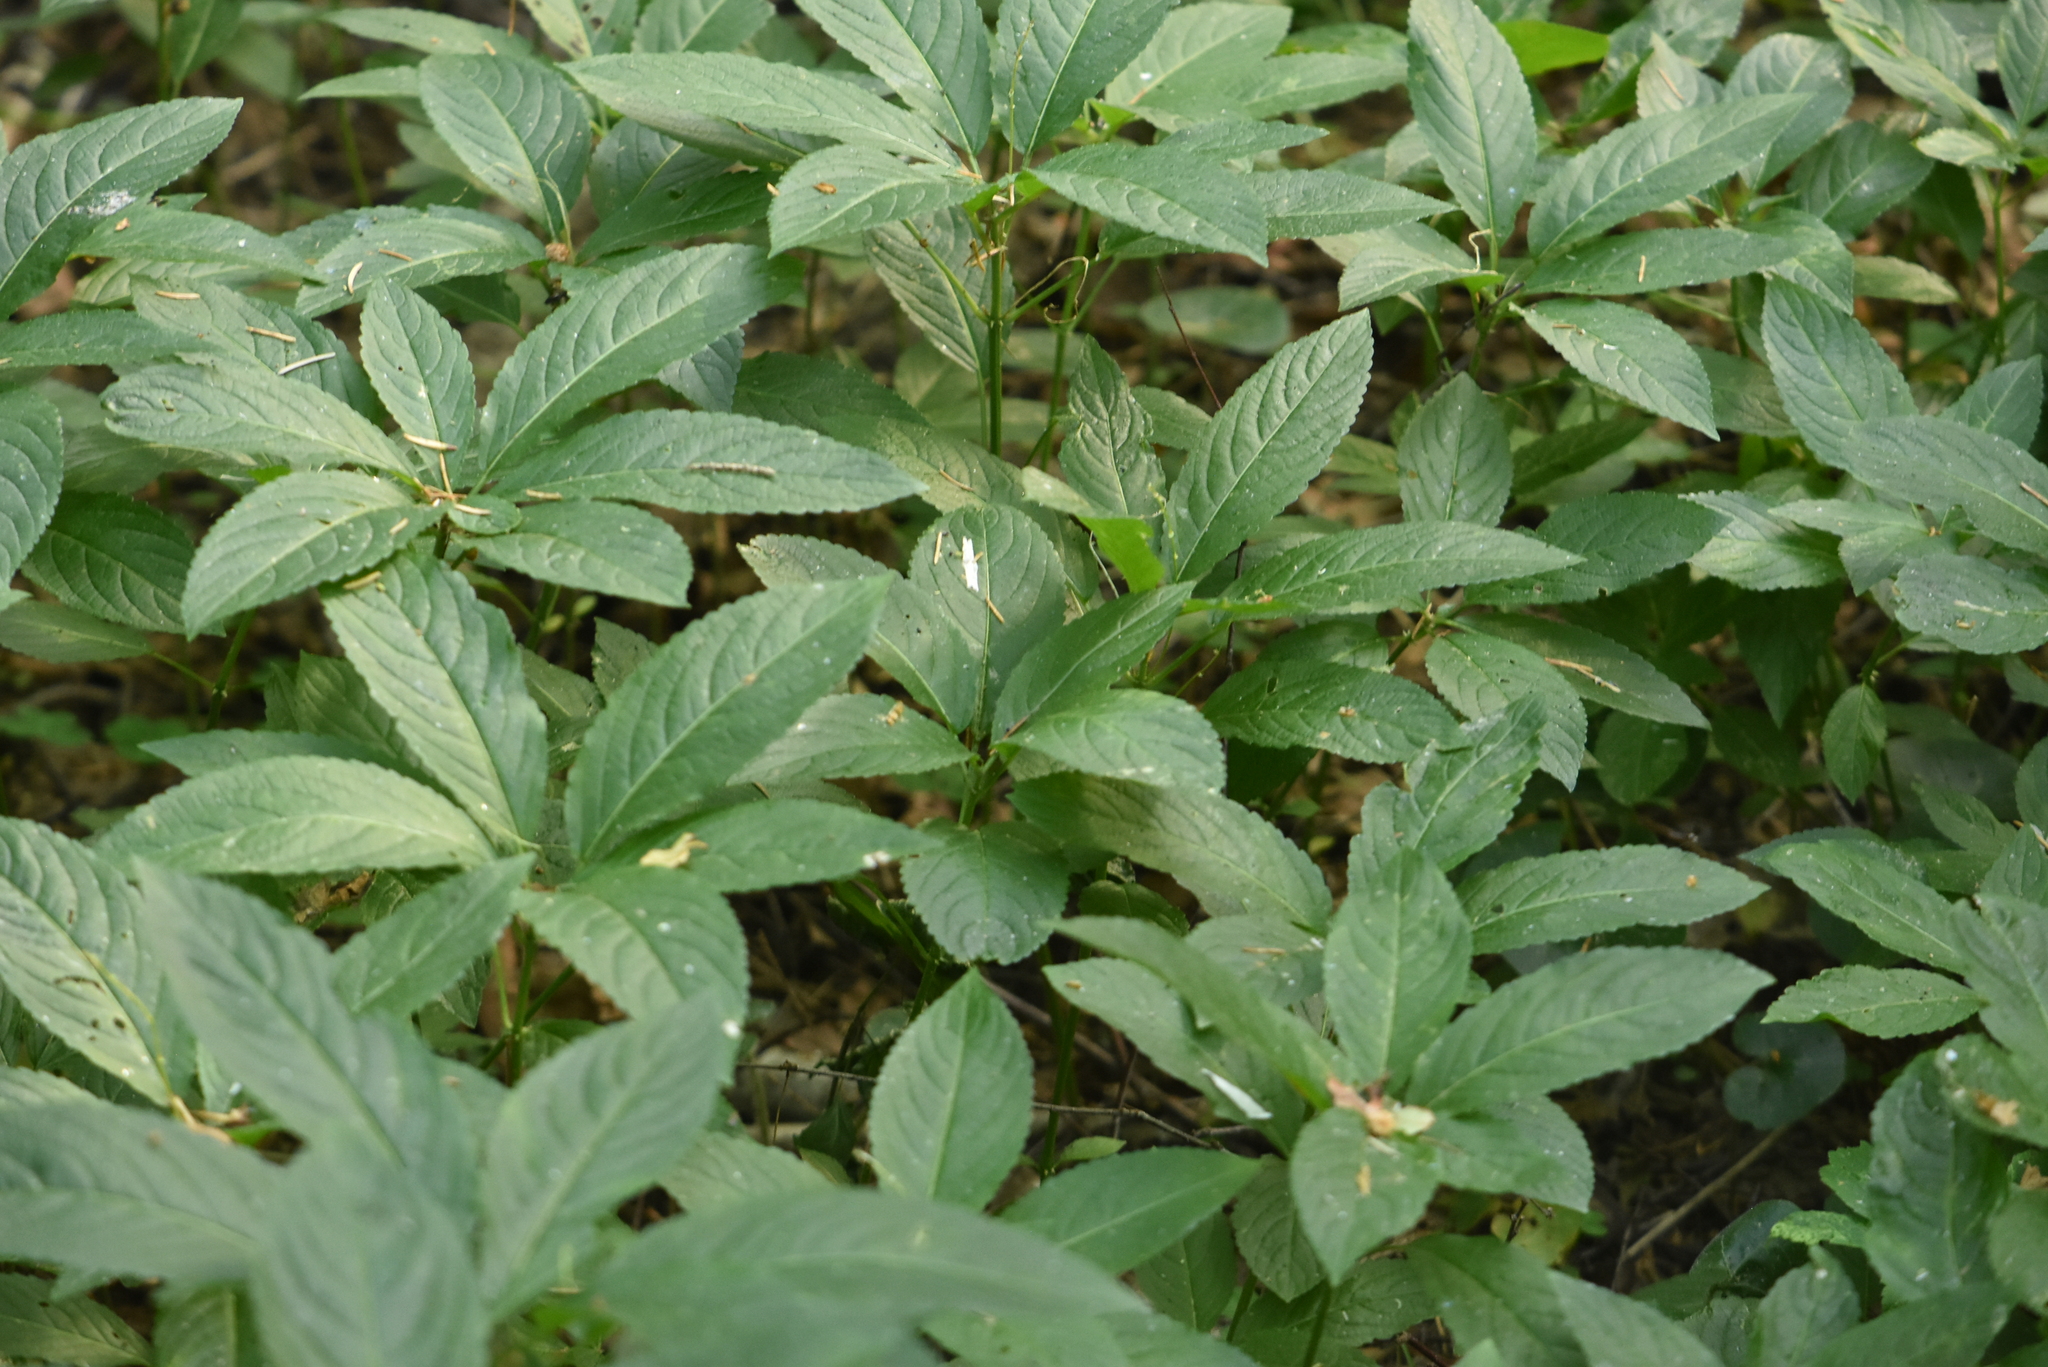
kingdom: Plantae
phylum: Tracheophyta
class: Magnoliopsida
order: Malpighiales
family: Euphorbiaceae
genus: Mercurialis
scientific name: Mercurialis perennis
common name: Dog mercury
